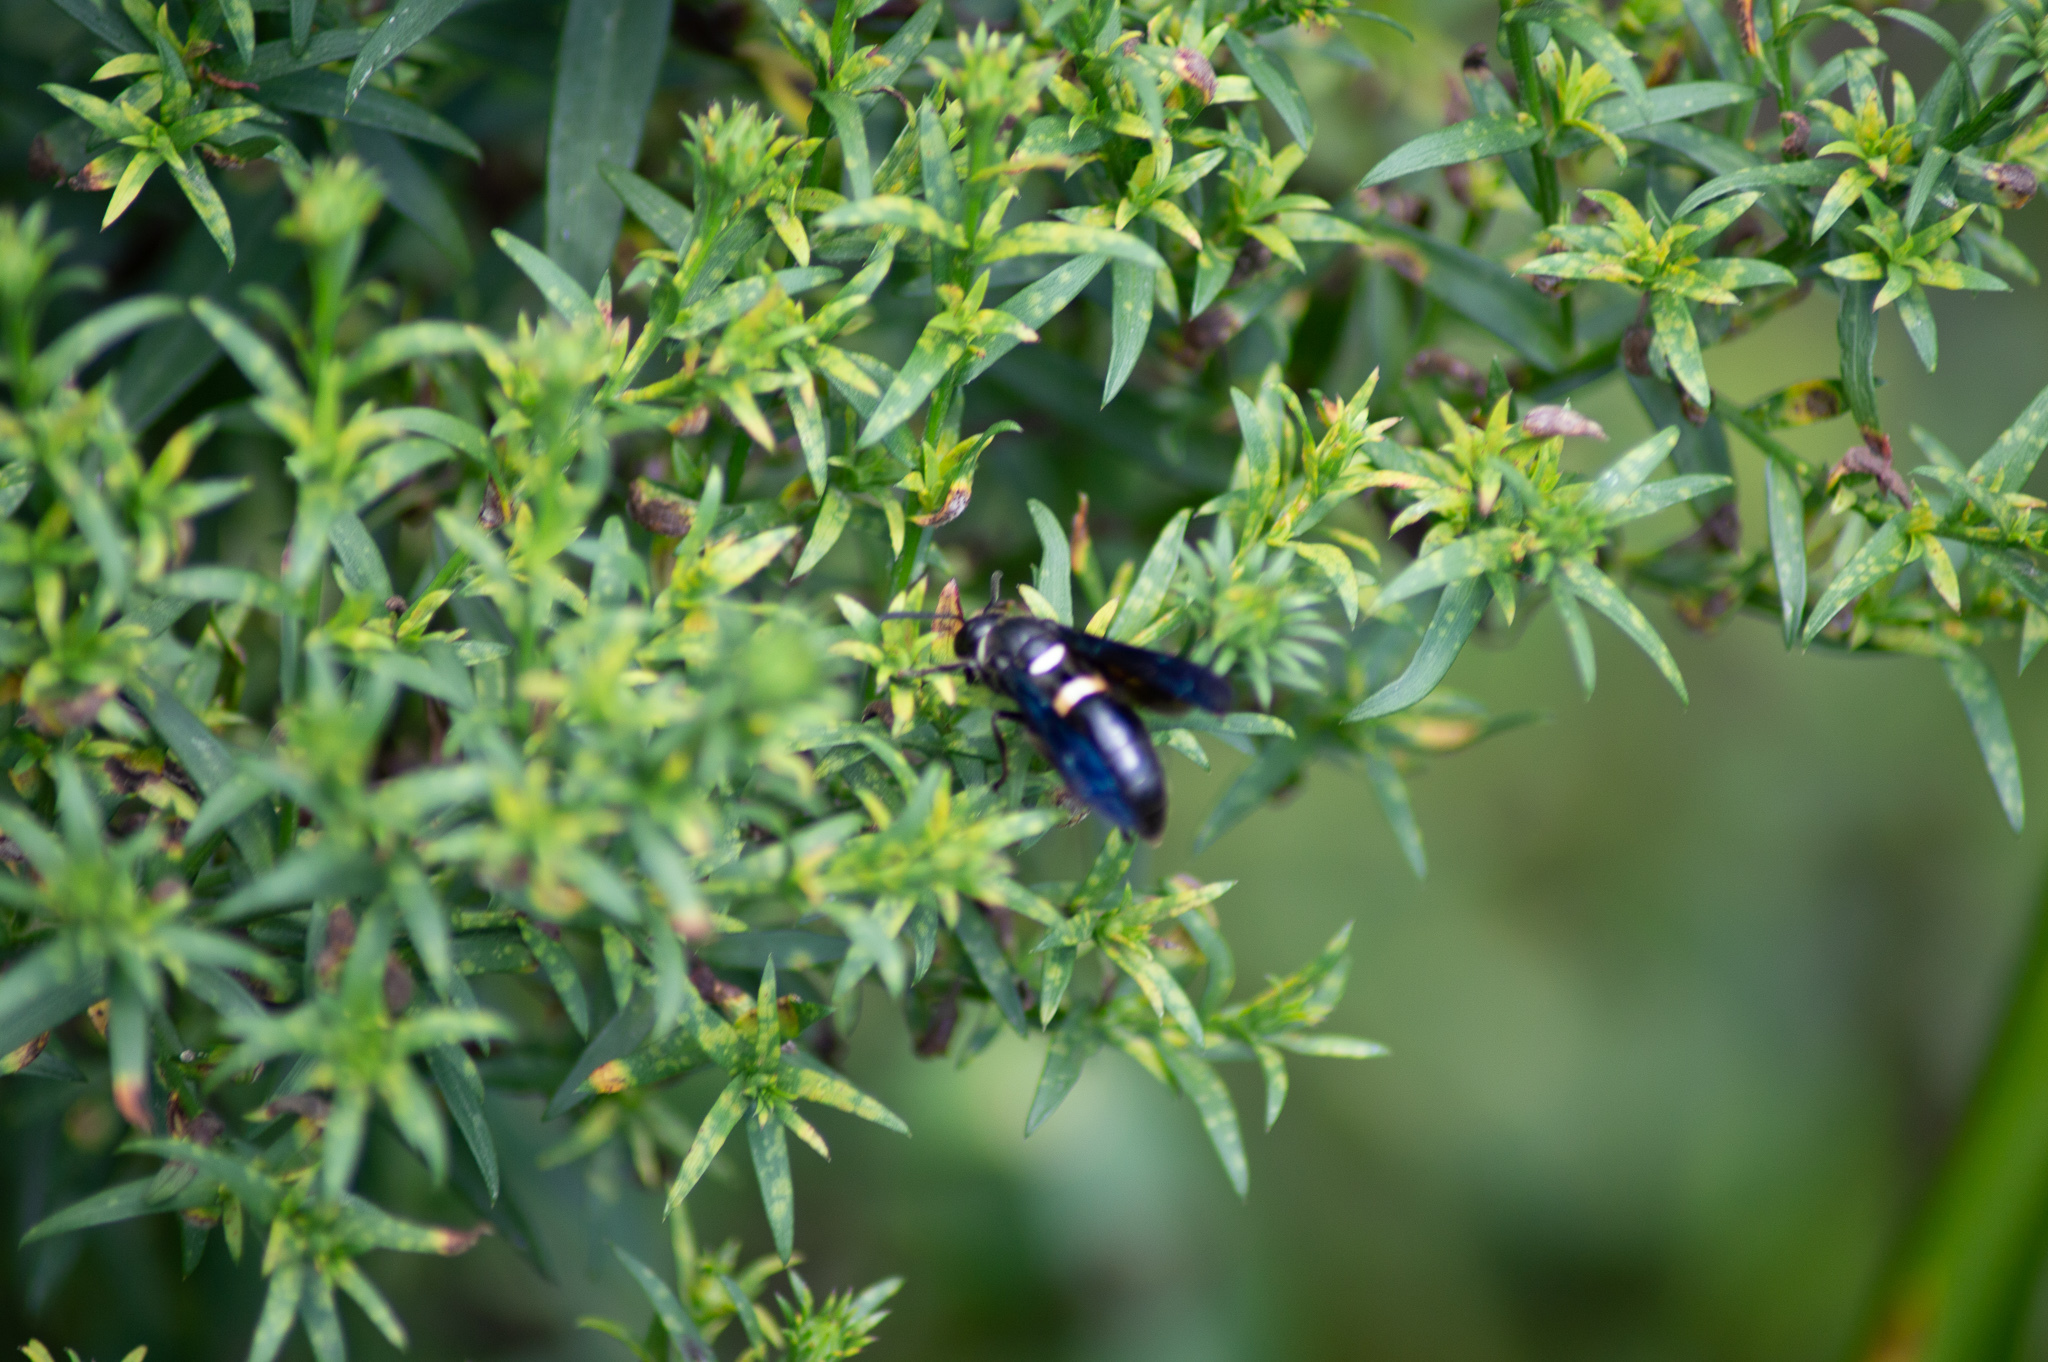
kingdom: Animalia
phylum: Arthropoda
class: Insecta
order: Hymenoptera
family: Eumenidae
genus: Monobia
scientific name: Monobia quadridens
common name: Four-toothed mason wasp
